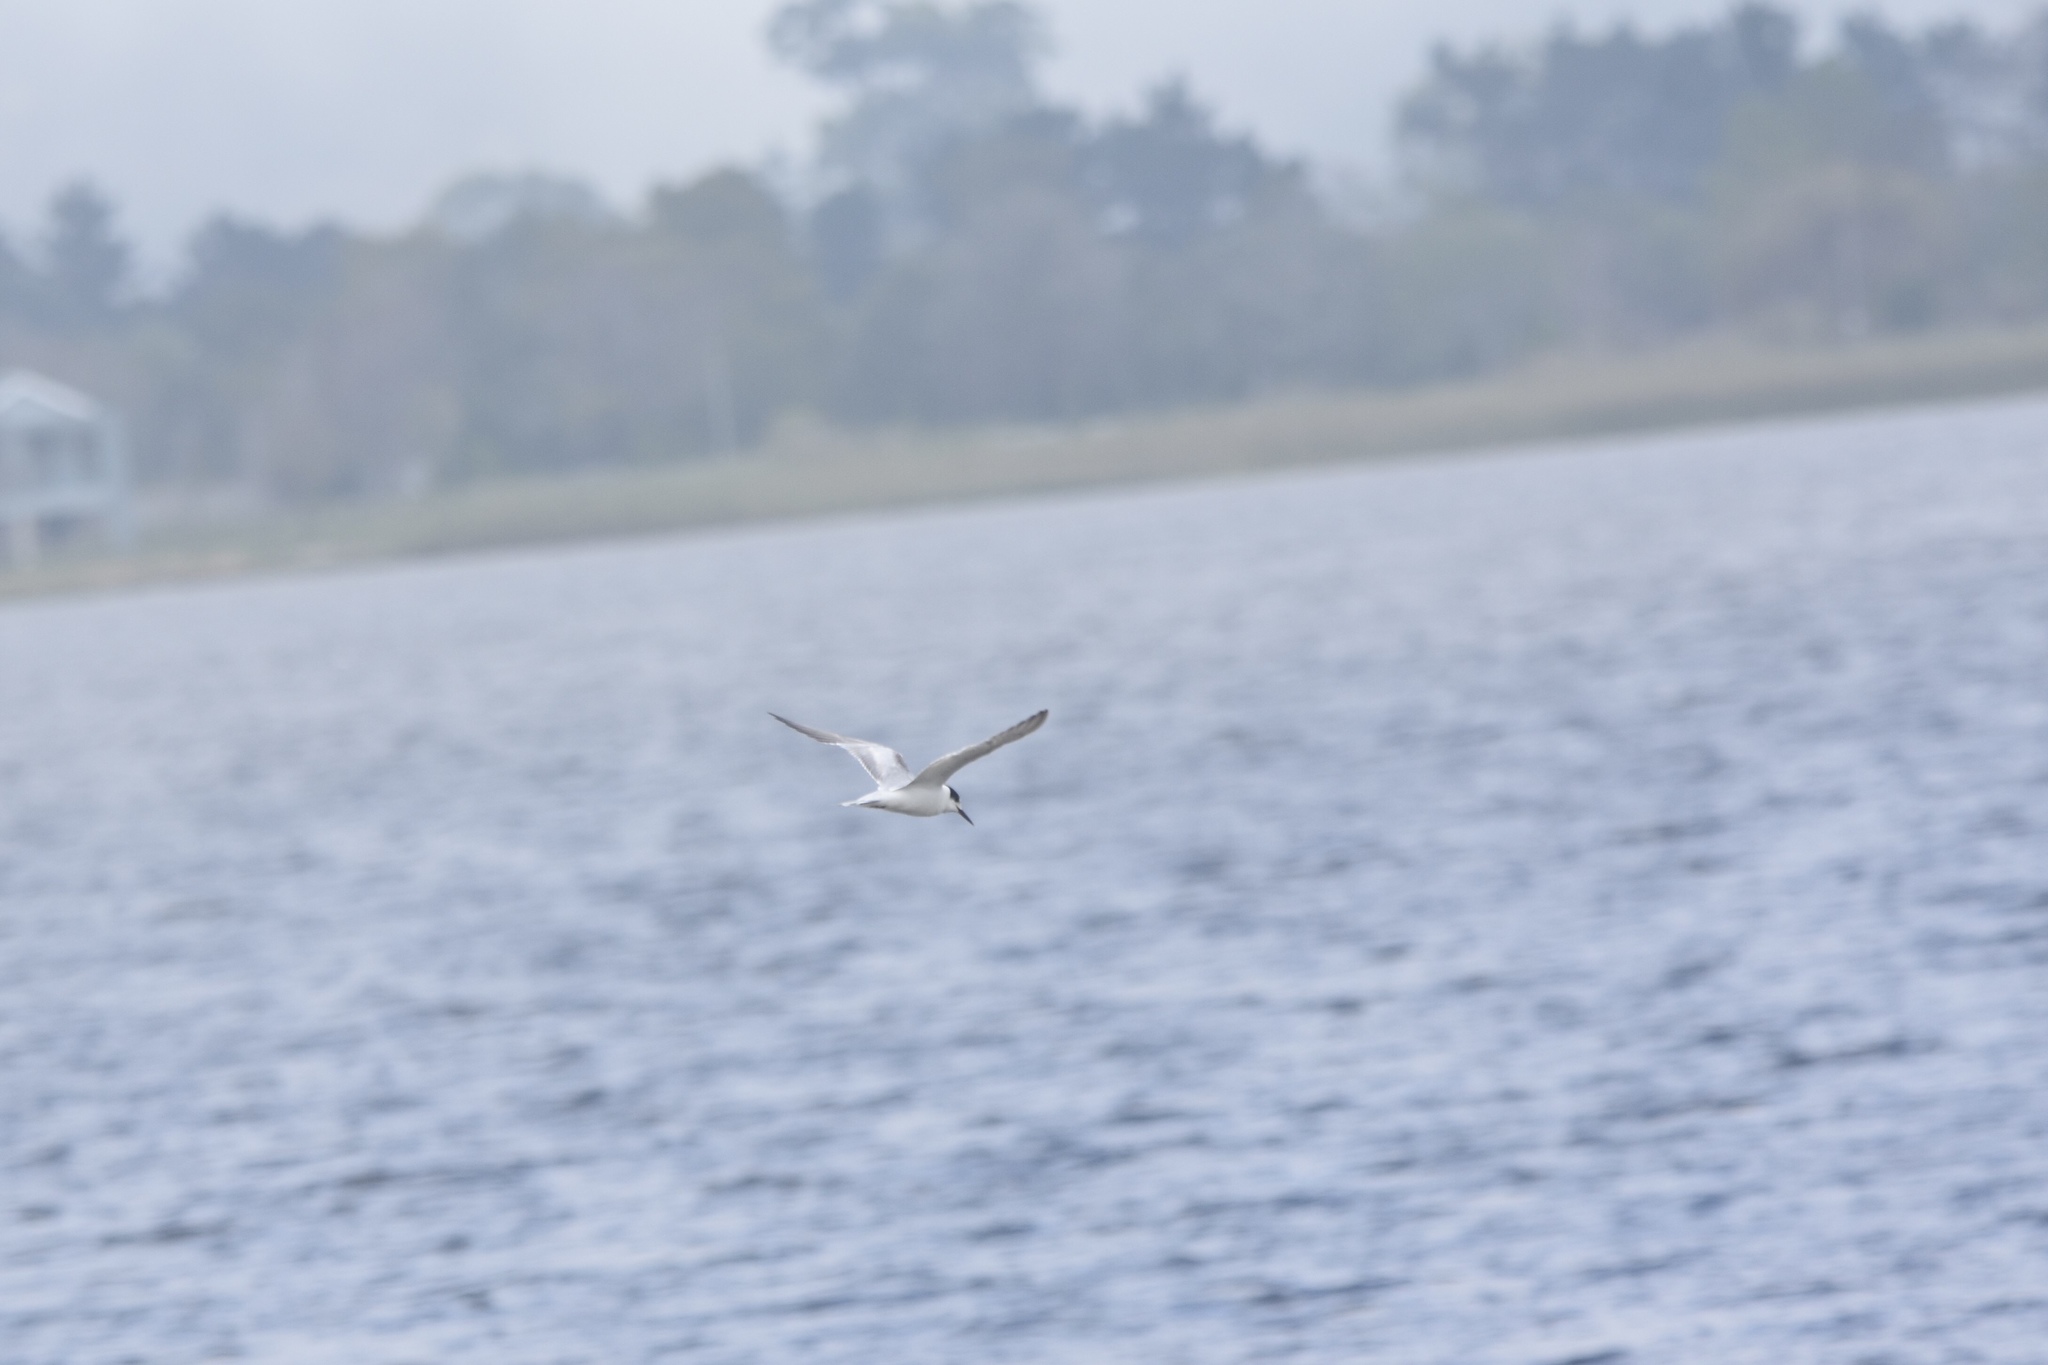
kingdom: Animalia
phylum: Chordata
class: Aves
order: Charadriiformes
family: Laridae
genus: Sterna
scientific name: Sterna hirundo
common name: Common tern
